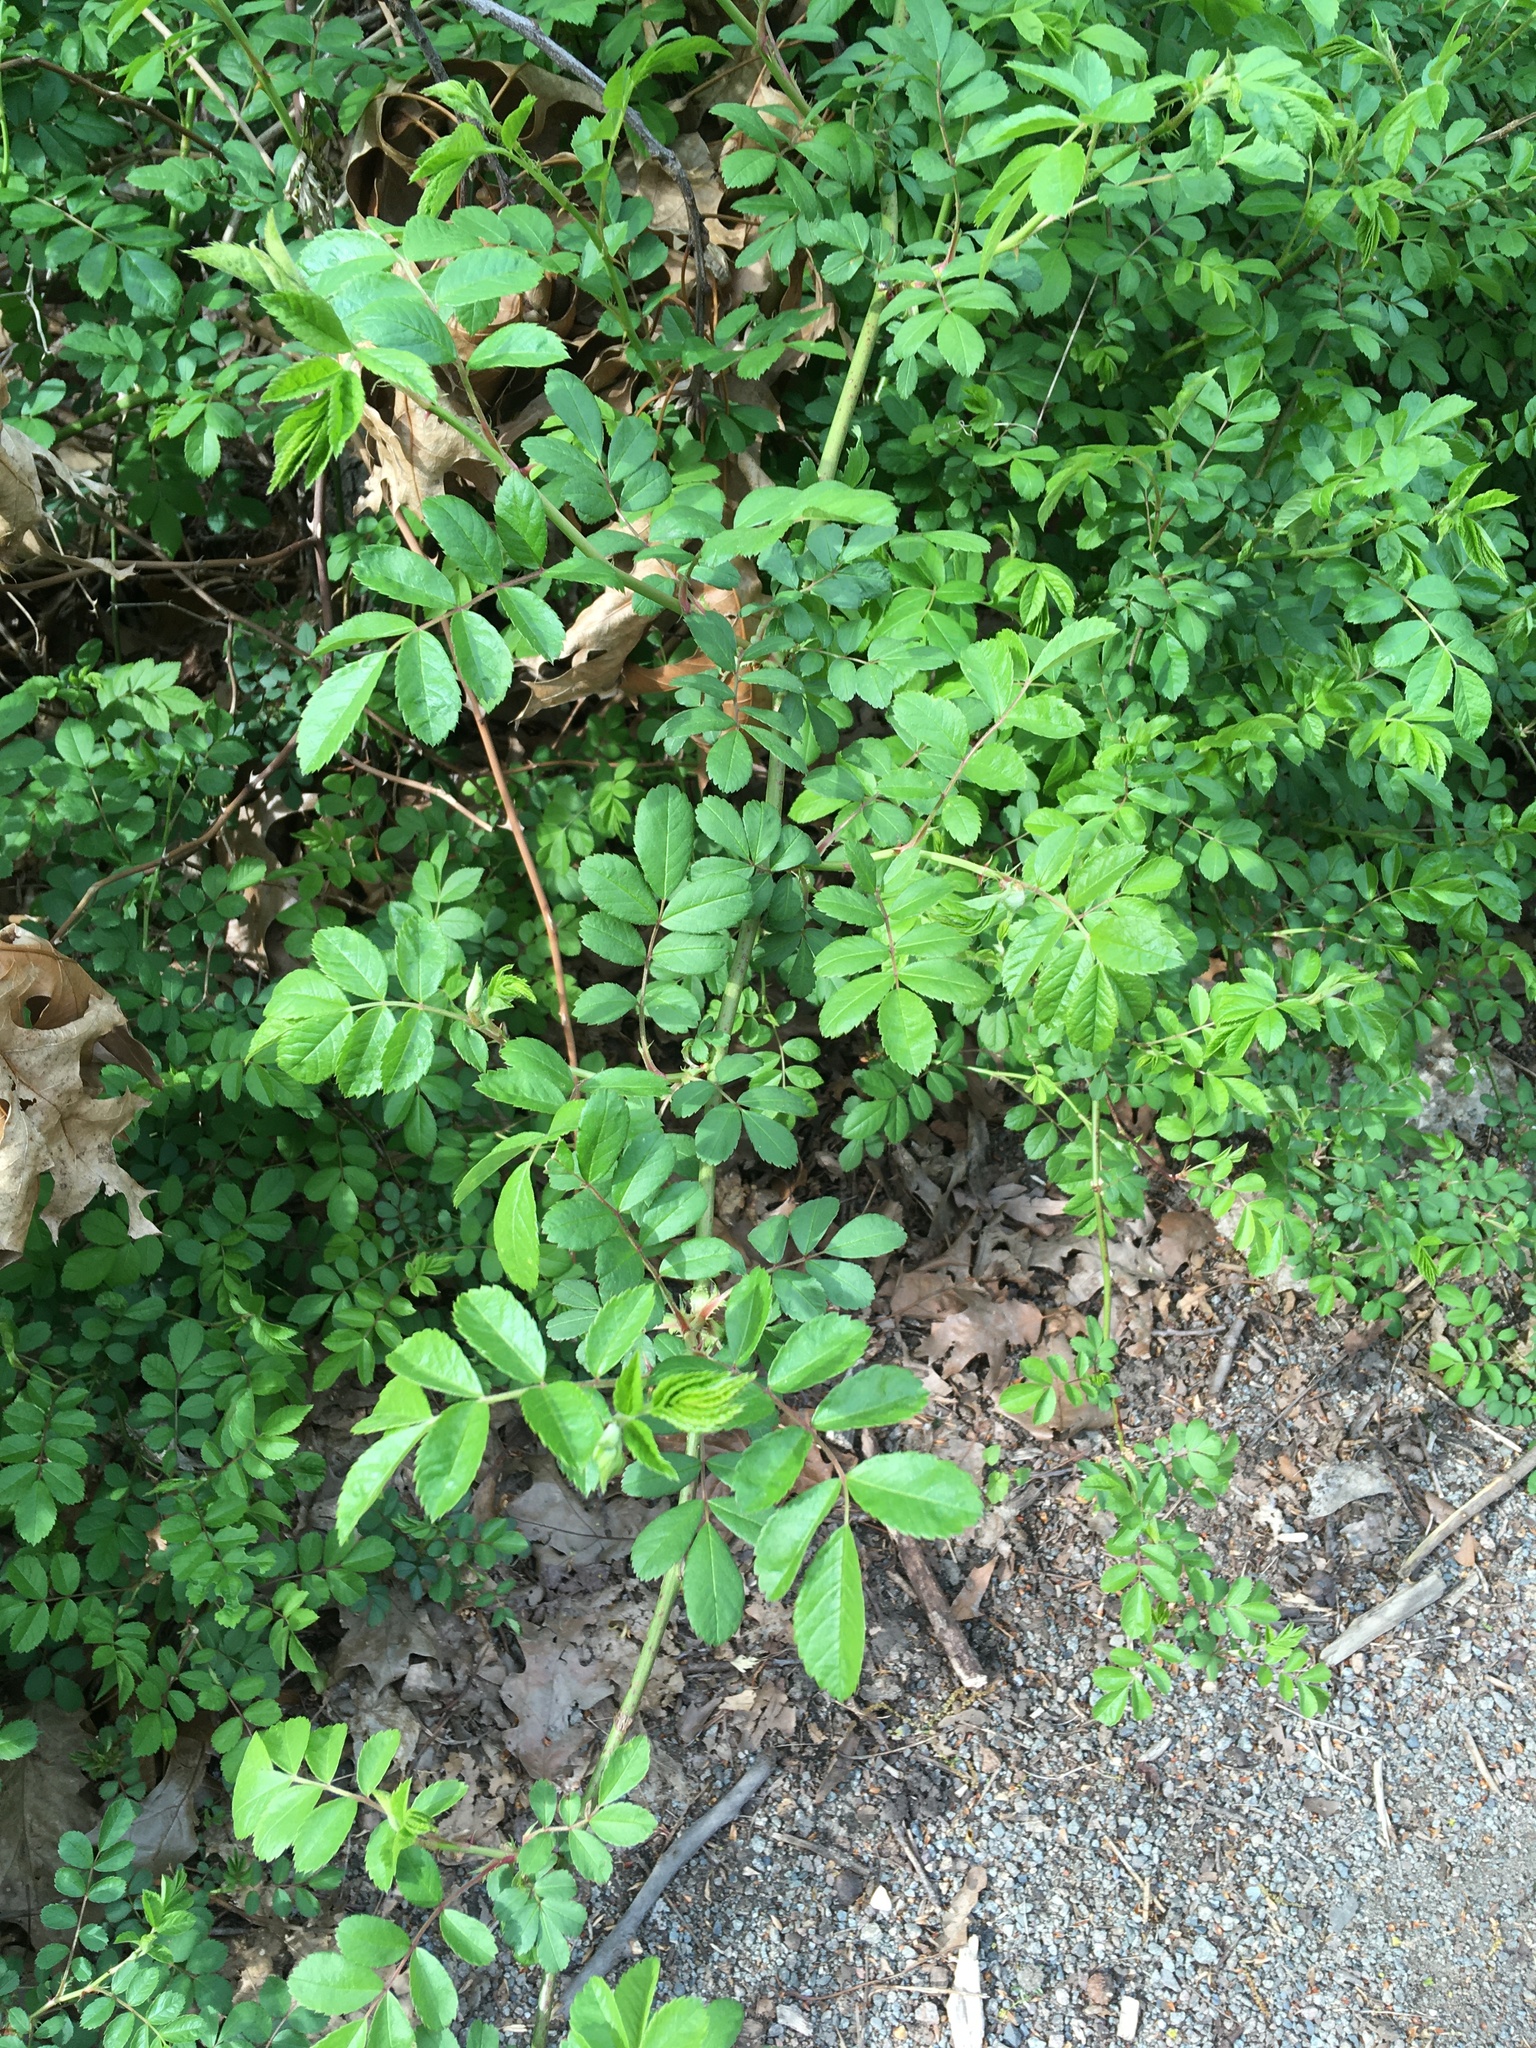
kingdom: Plantae
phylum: Tracheophyta
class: Magnoliopsida
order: Rosales
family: Rosaceae
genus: Rosa
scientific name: Rosa multiflora
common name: Multiflora rose
